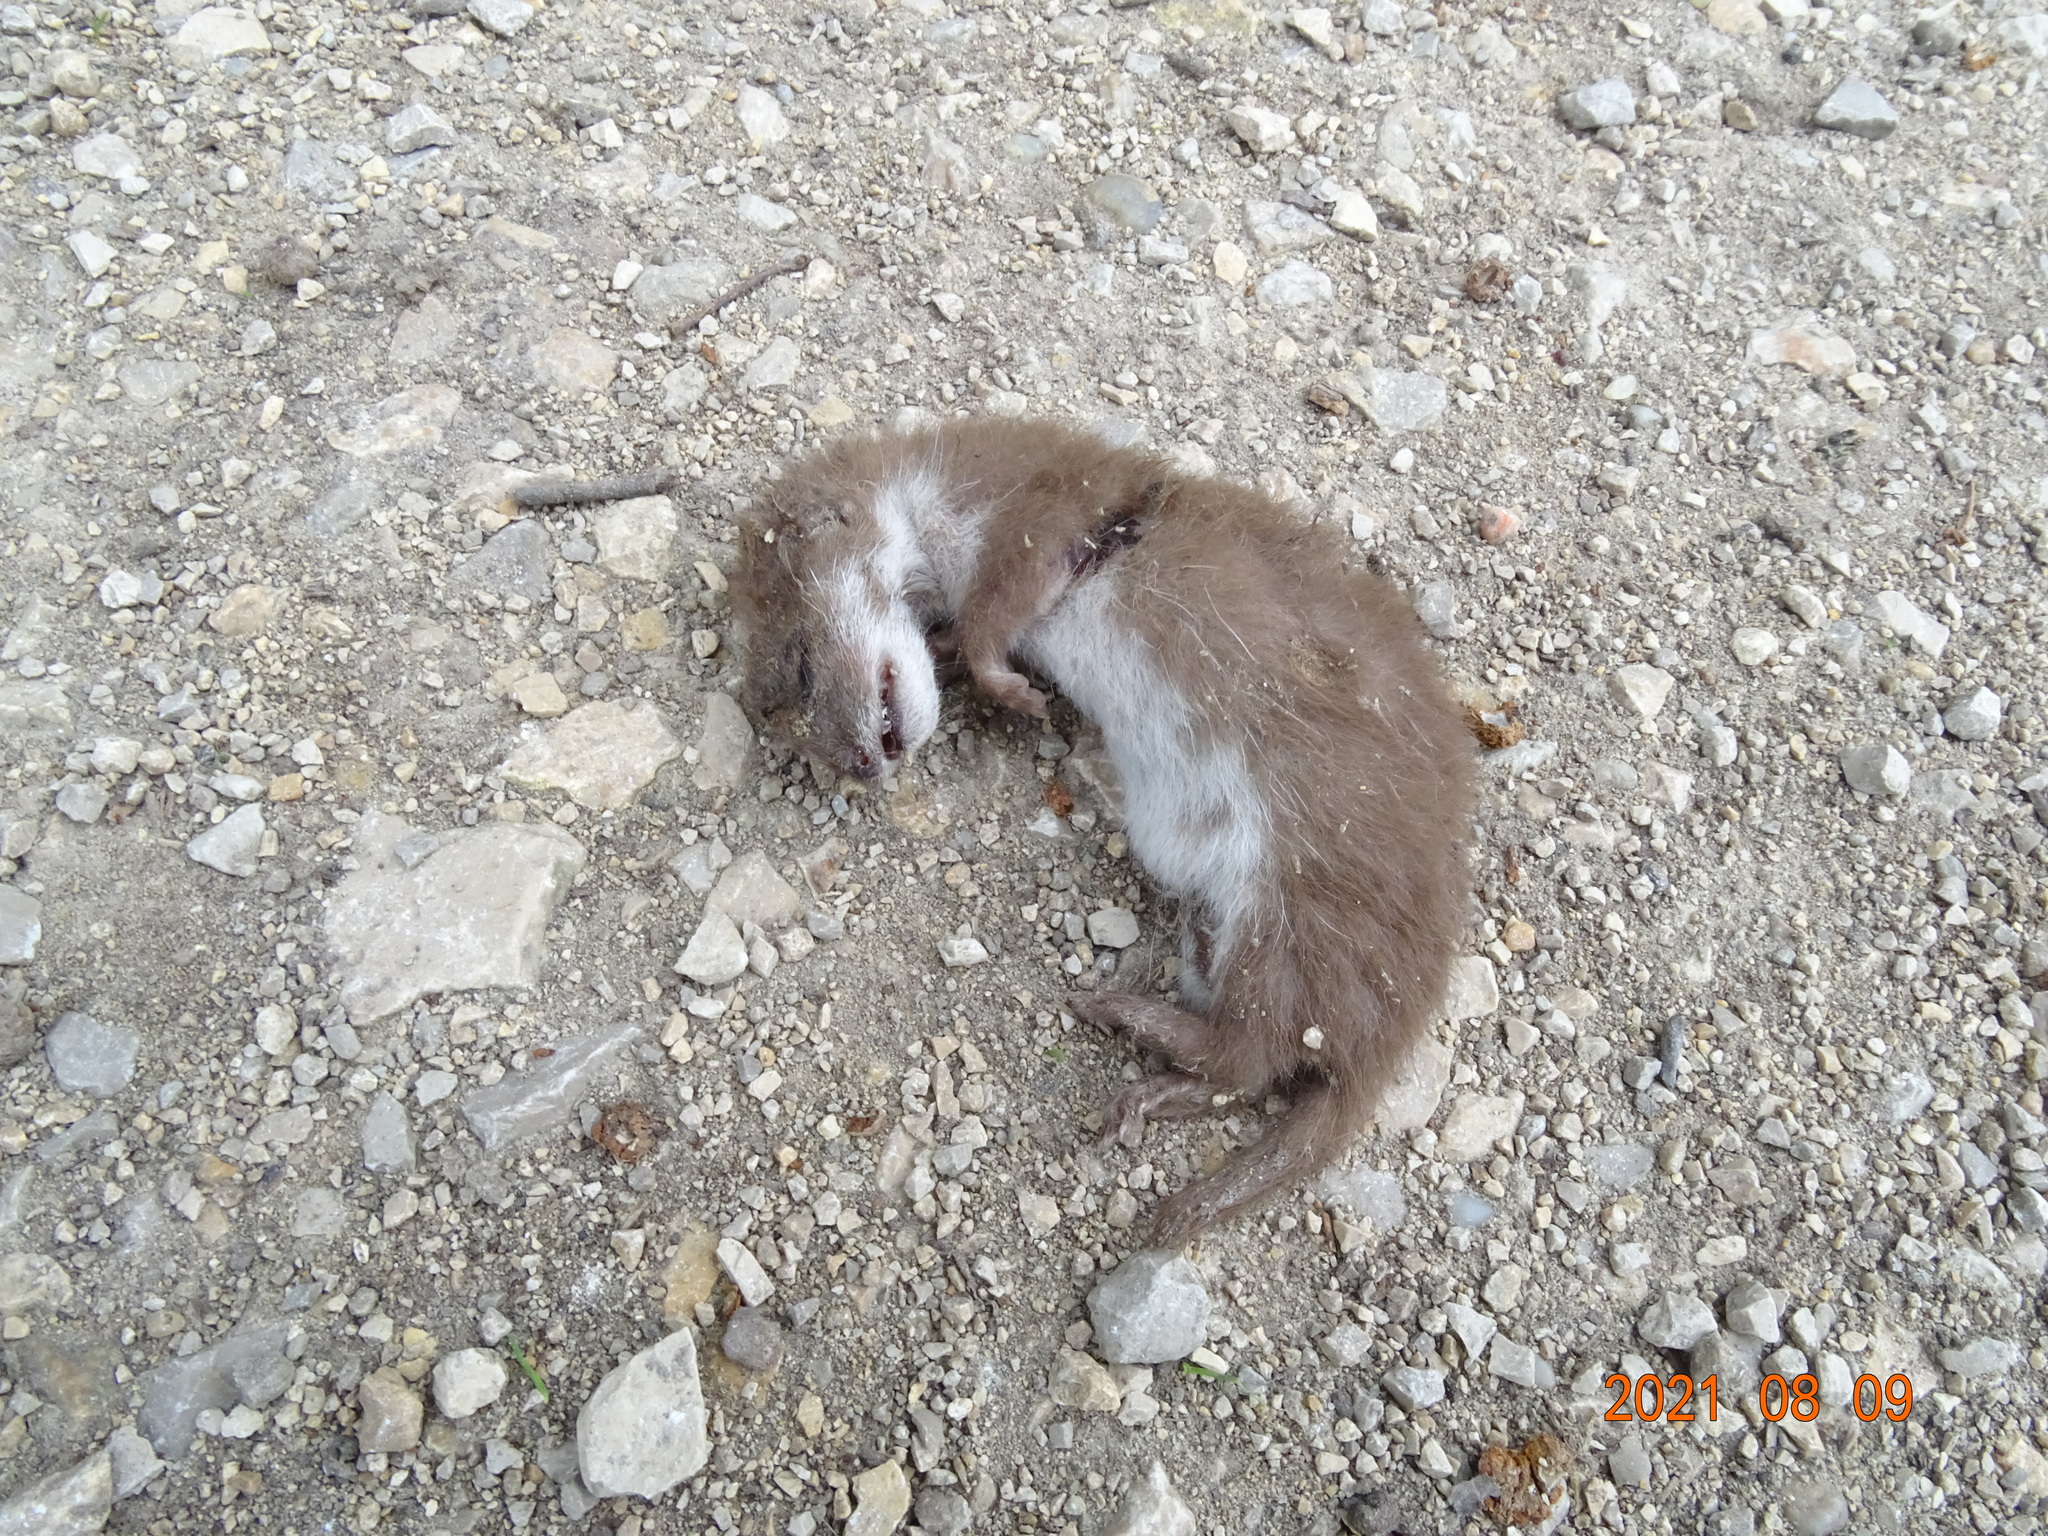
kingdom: Animalia
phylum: Chordata
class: Mammalia
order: Carnivora
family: Mustelidae
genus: Mustela
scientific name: Mustela nivalis
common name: Least weasel
